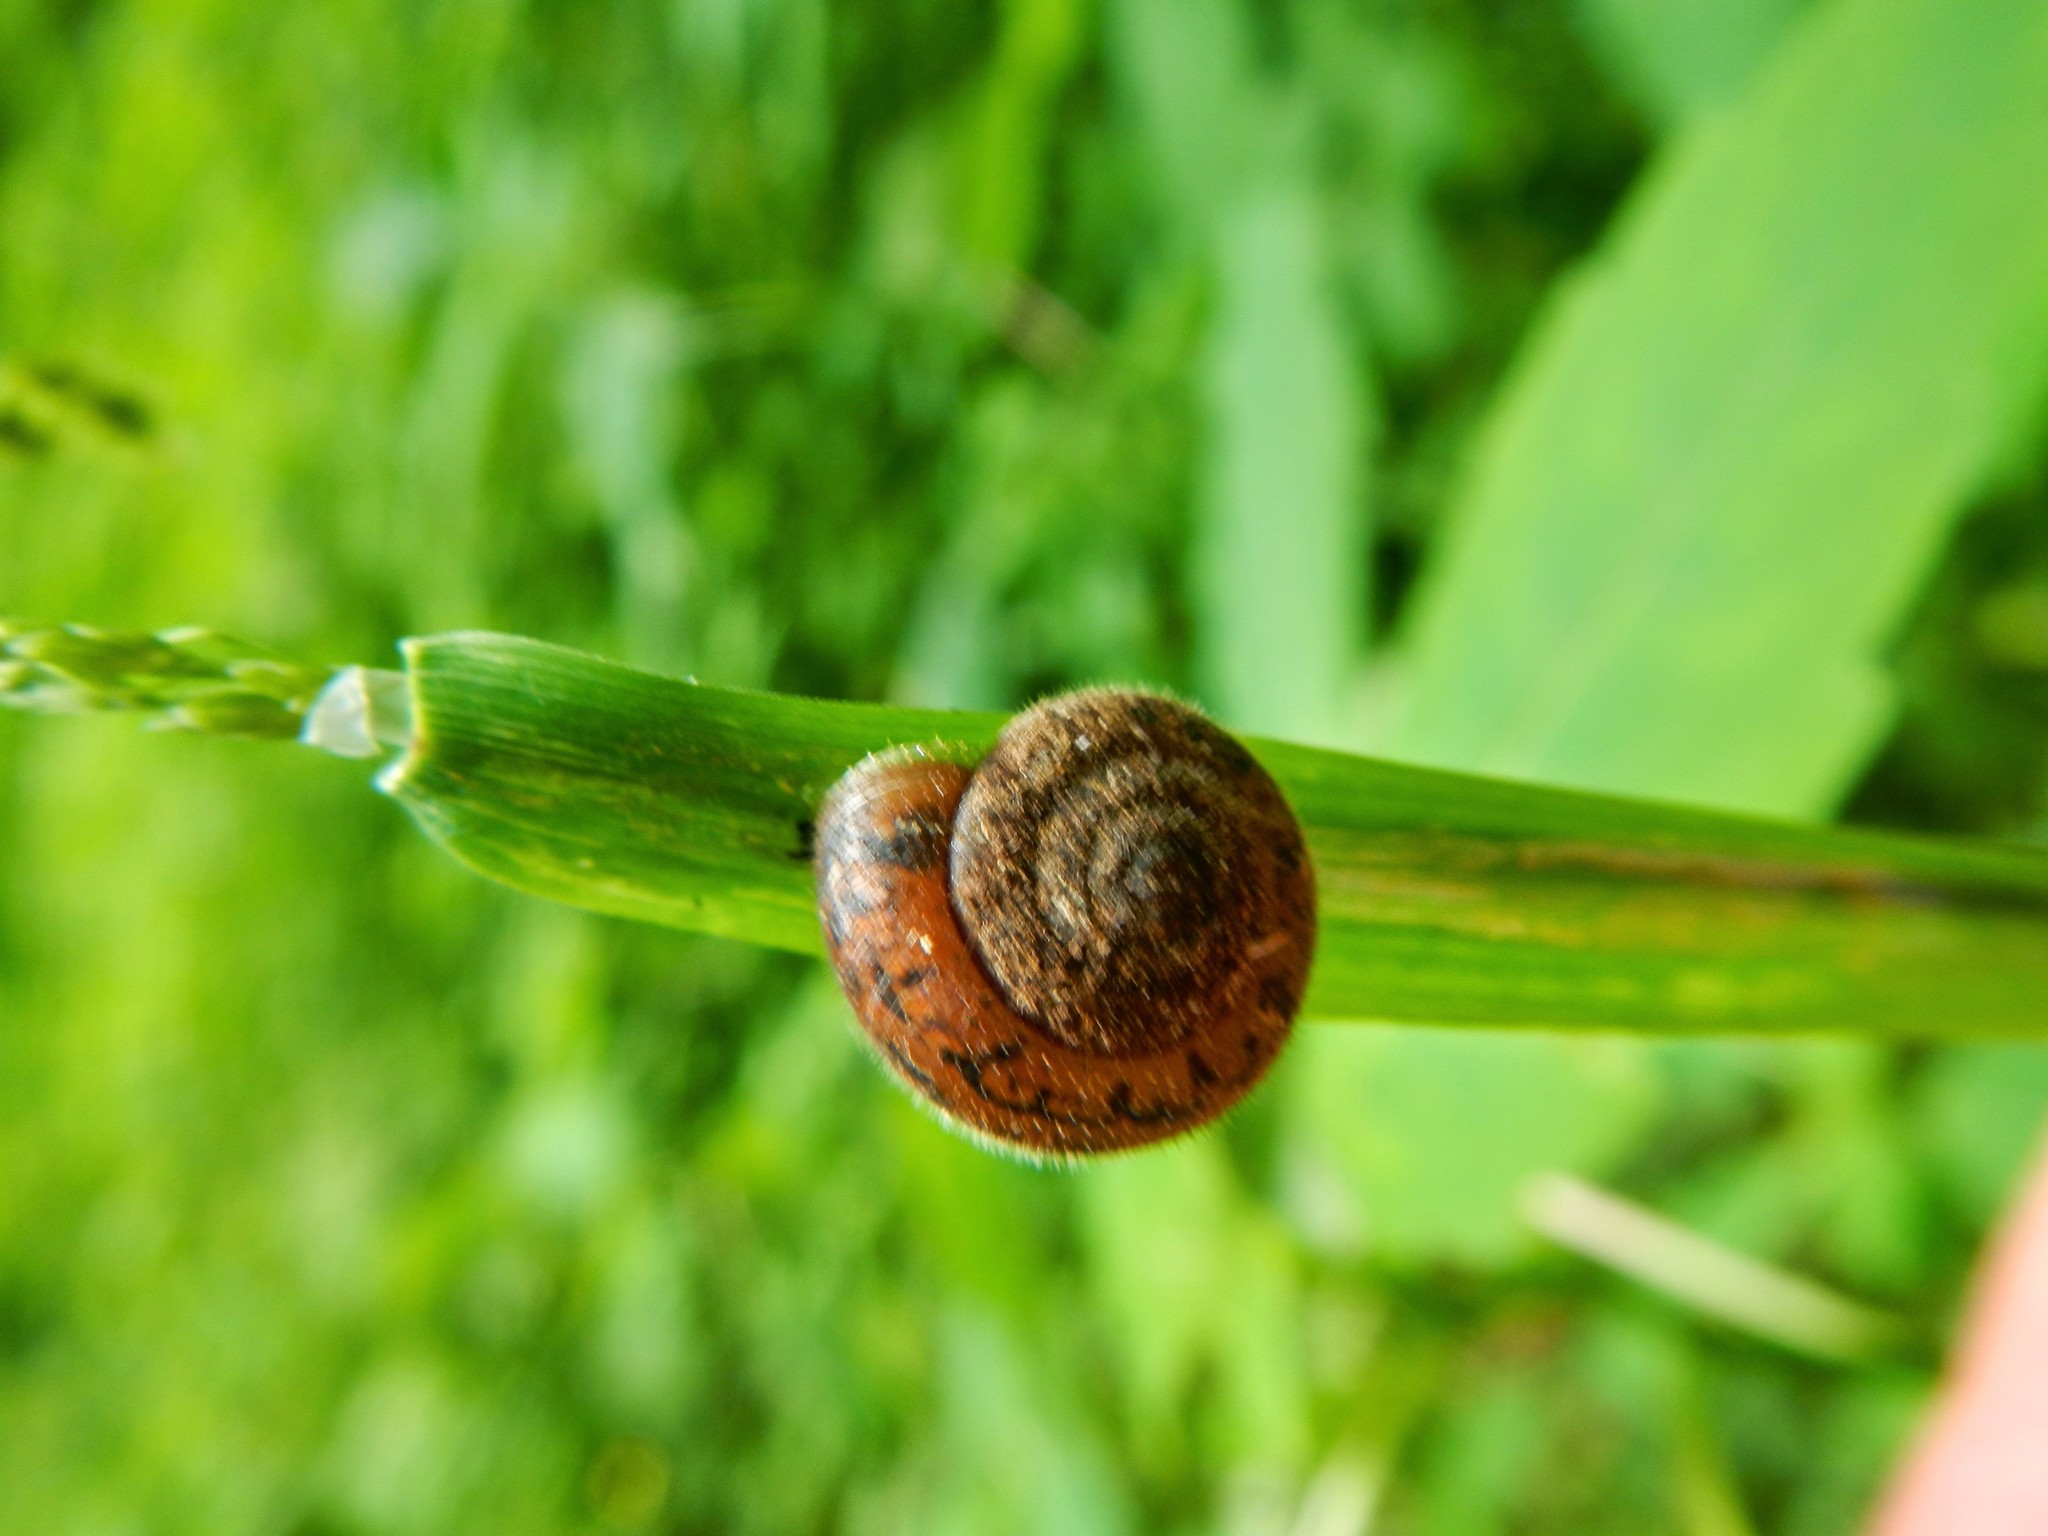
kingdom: Animalia
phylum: Mollusca
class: Gastropoda
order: Stylommatophora
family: Polygyridae
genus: Vespericola
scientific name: Vespericola columbianus
